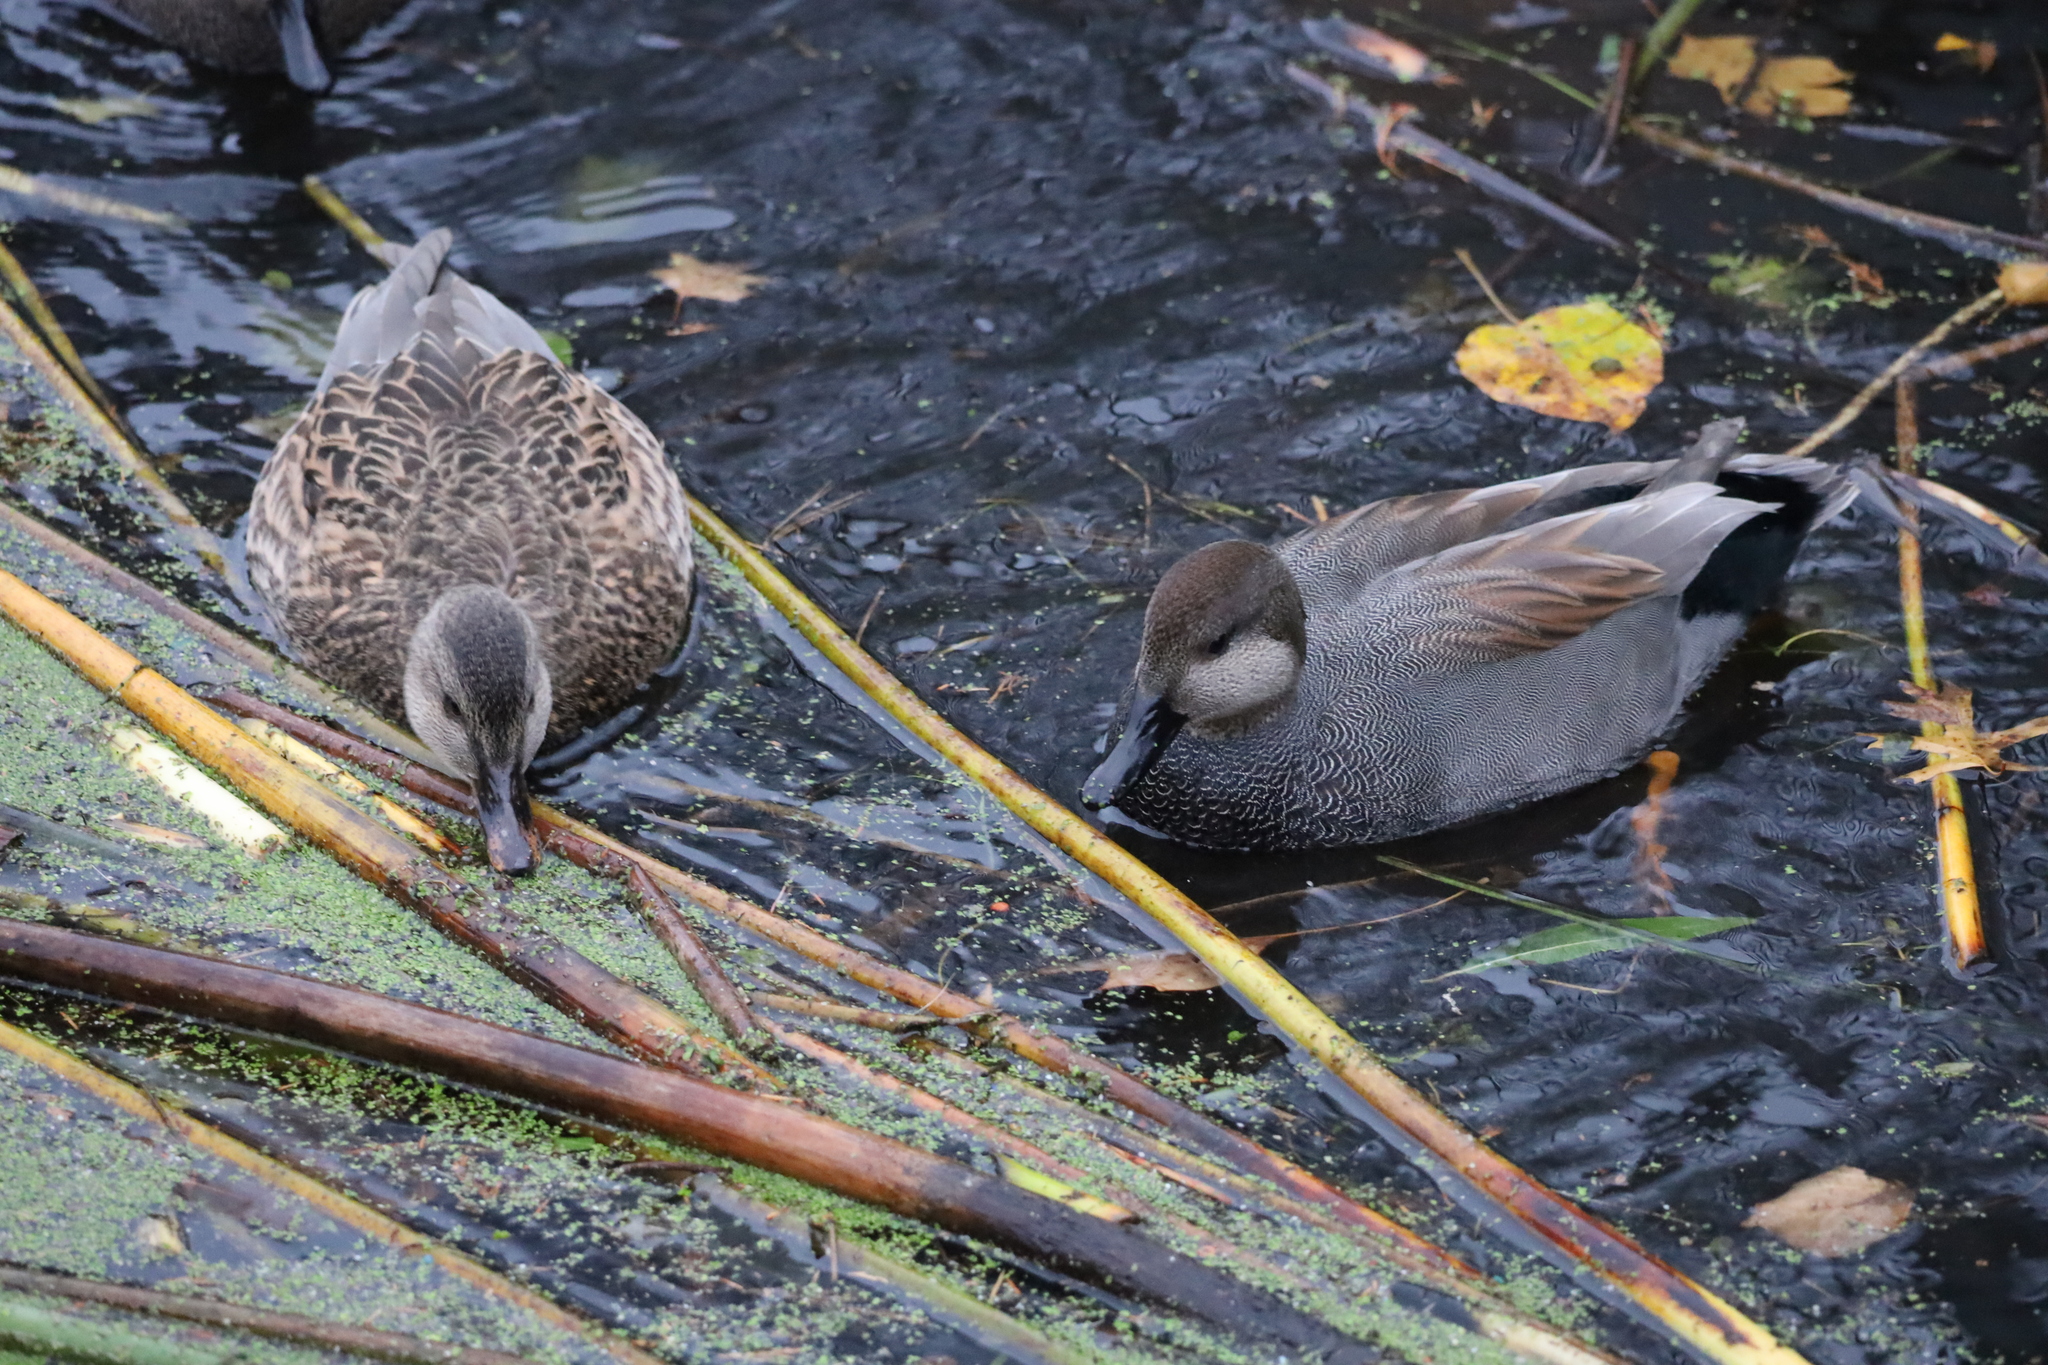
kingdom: Animalia
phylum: Chordata
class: Aves
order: Anseriformes
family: Anatidae
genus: Mareca
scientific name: Mareca strepera
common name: Gadwall
